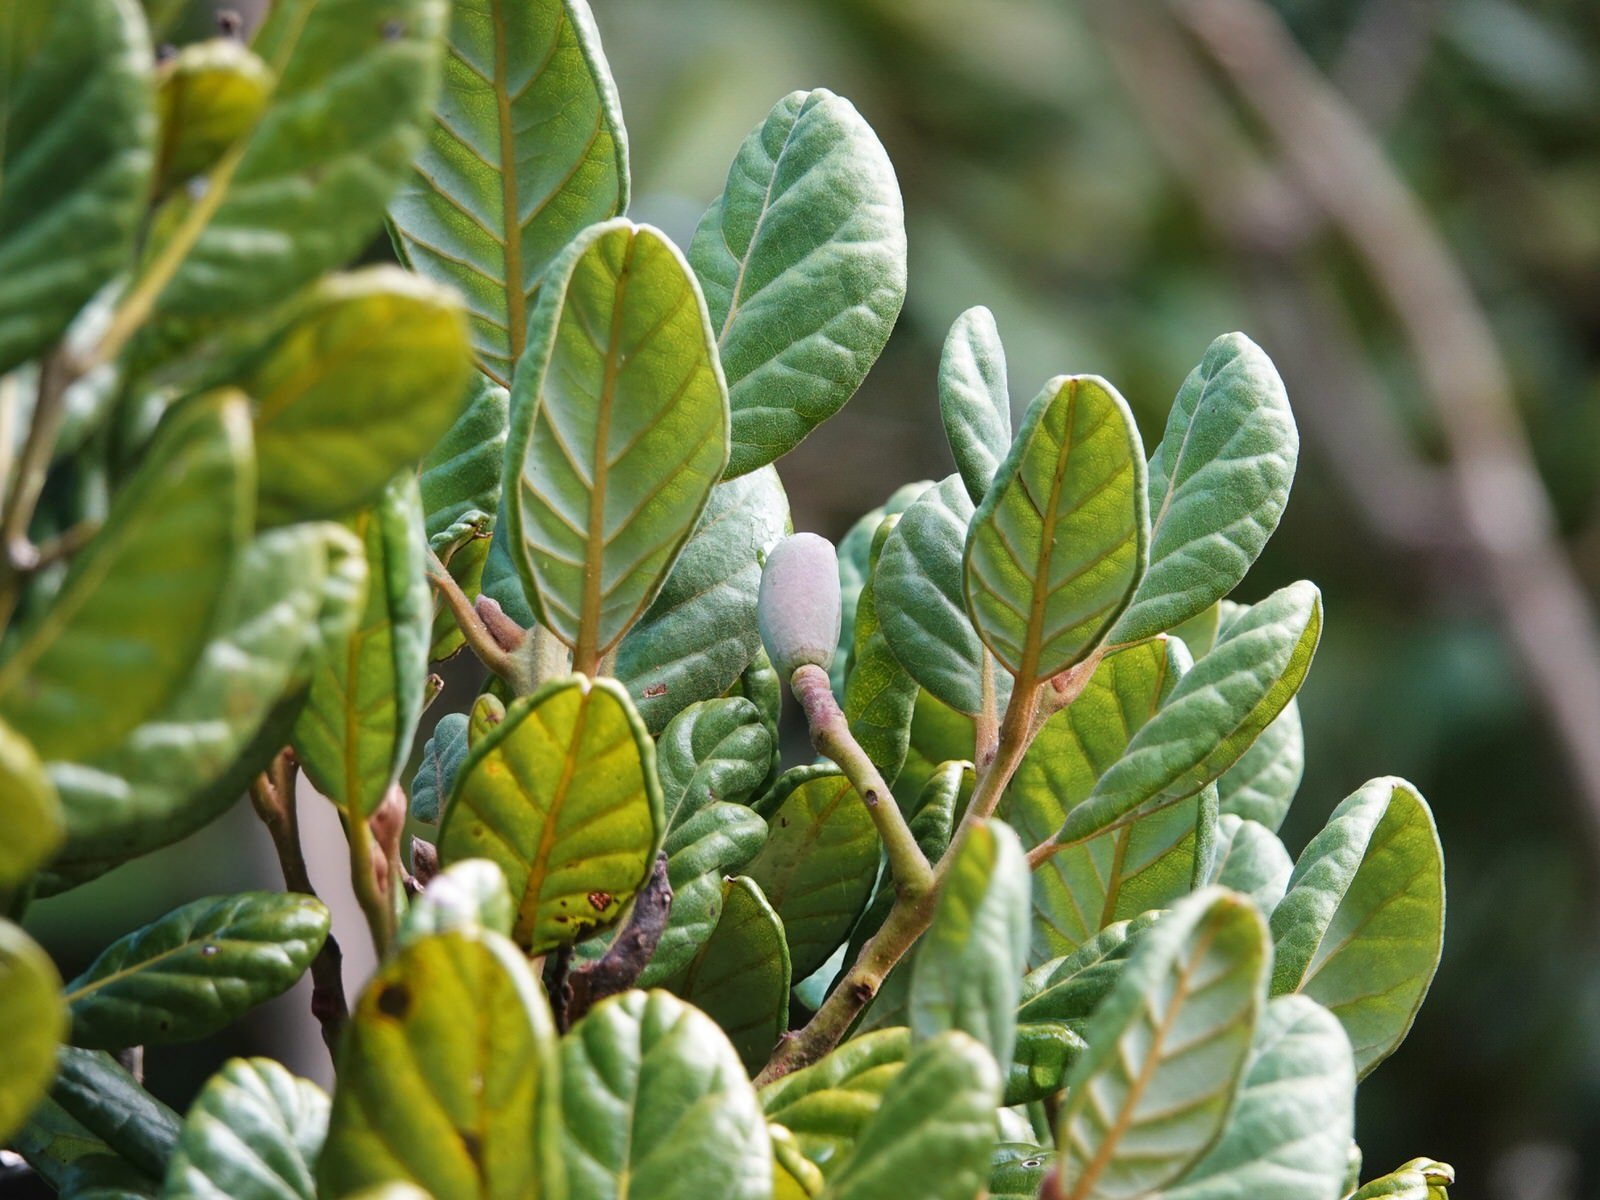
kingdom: Plantae
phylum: Tracheophyta
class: Magnoliopsida
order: Laurales
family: Lauraceae
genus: Beilschmiedia
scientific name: Beilschmiedia tarairi
